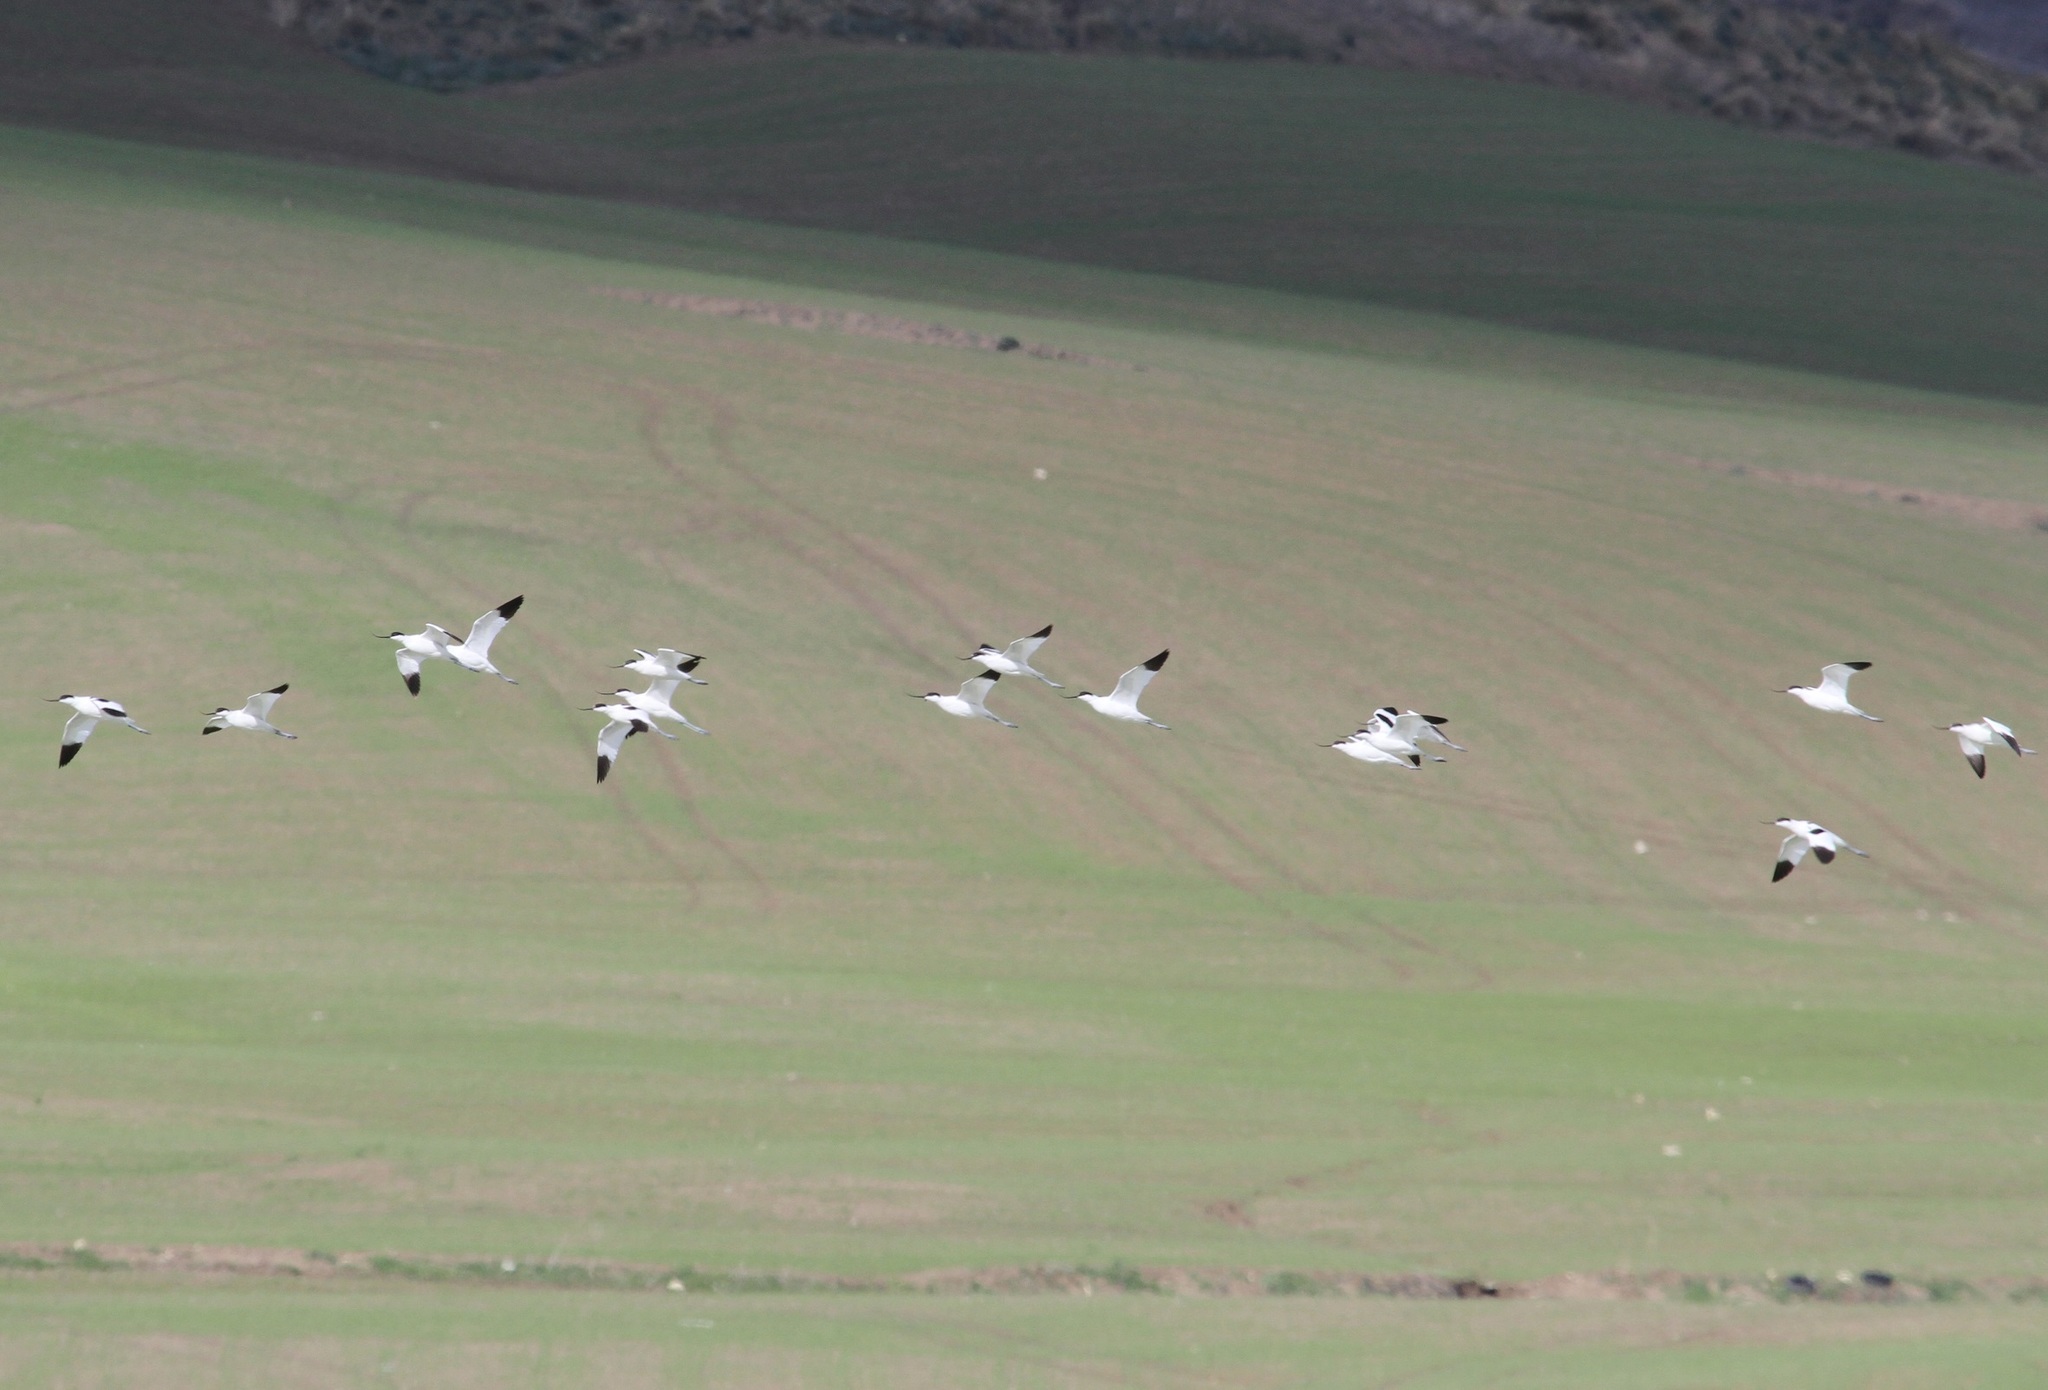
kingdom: Animalia
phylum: Chordata
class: Aves
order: Charadriiformes
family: Recurvirostridae
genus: Recurvirostra
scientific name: Recurvirostra avosetta
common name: Pied avocet
